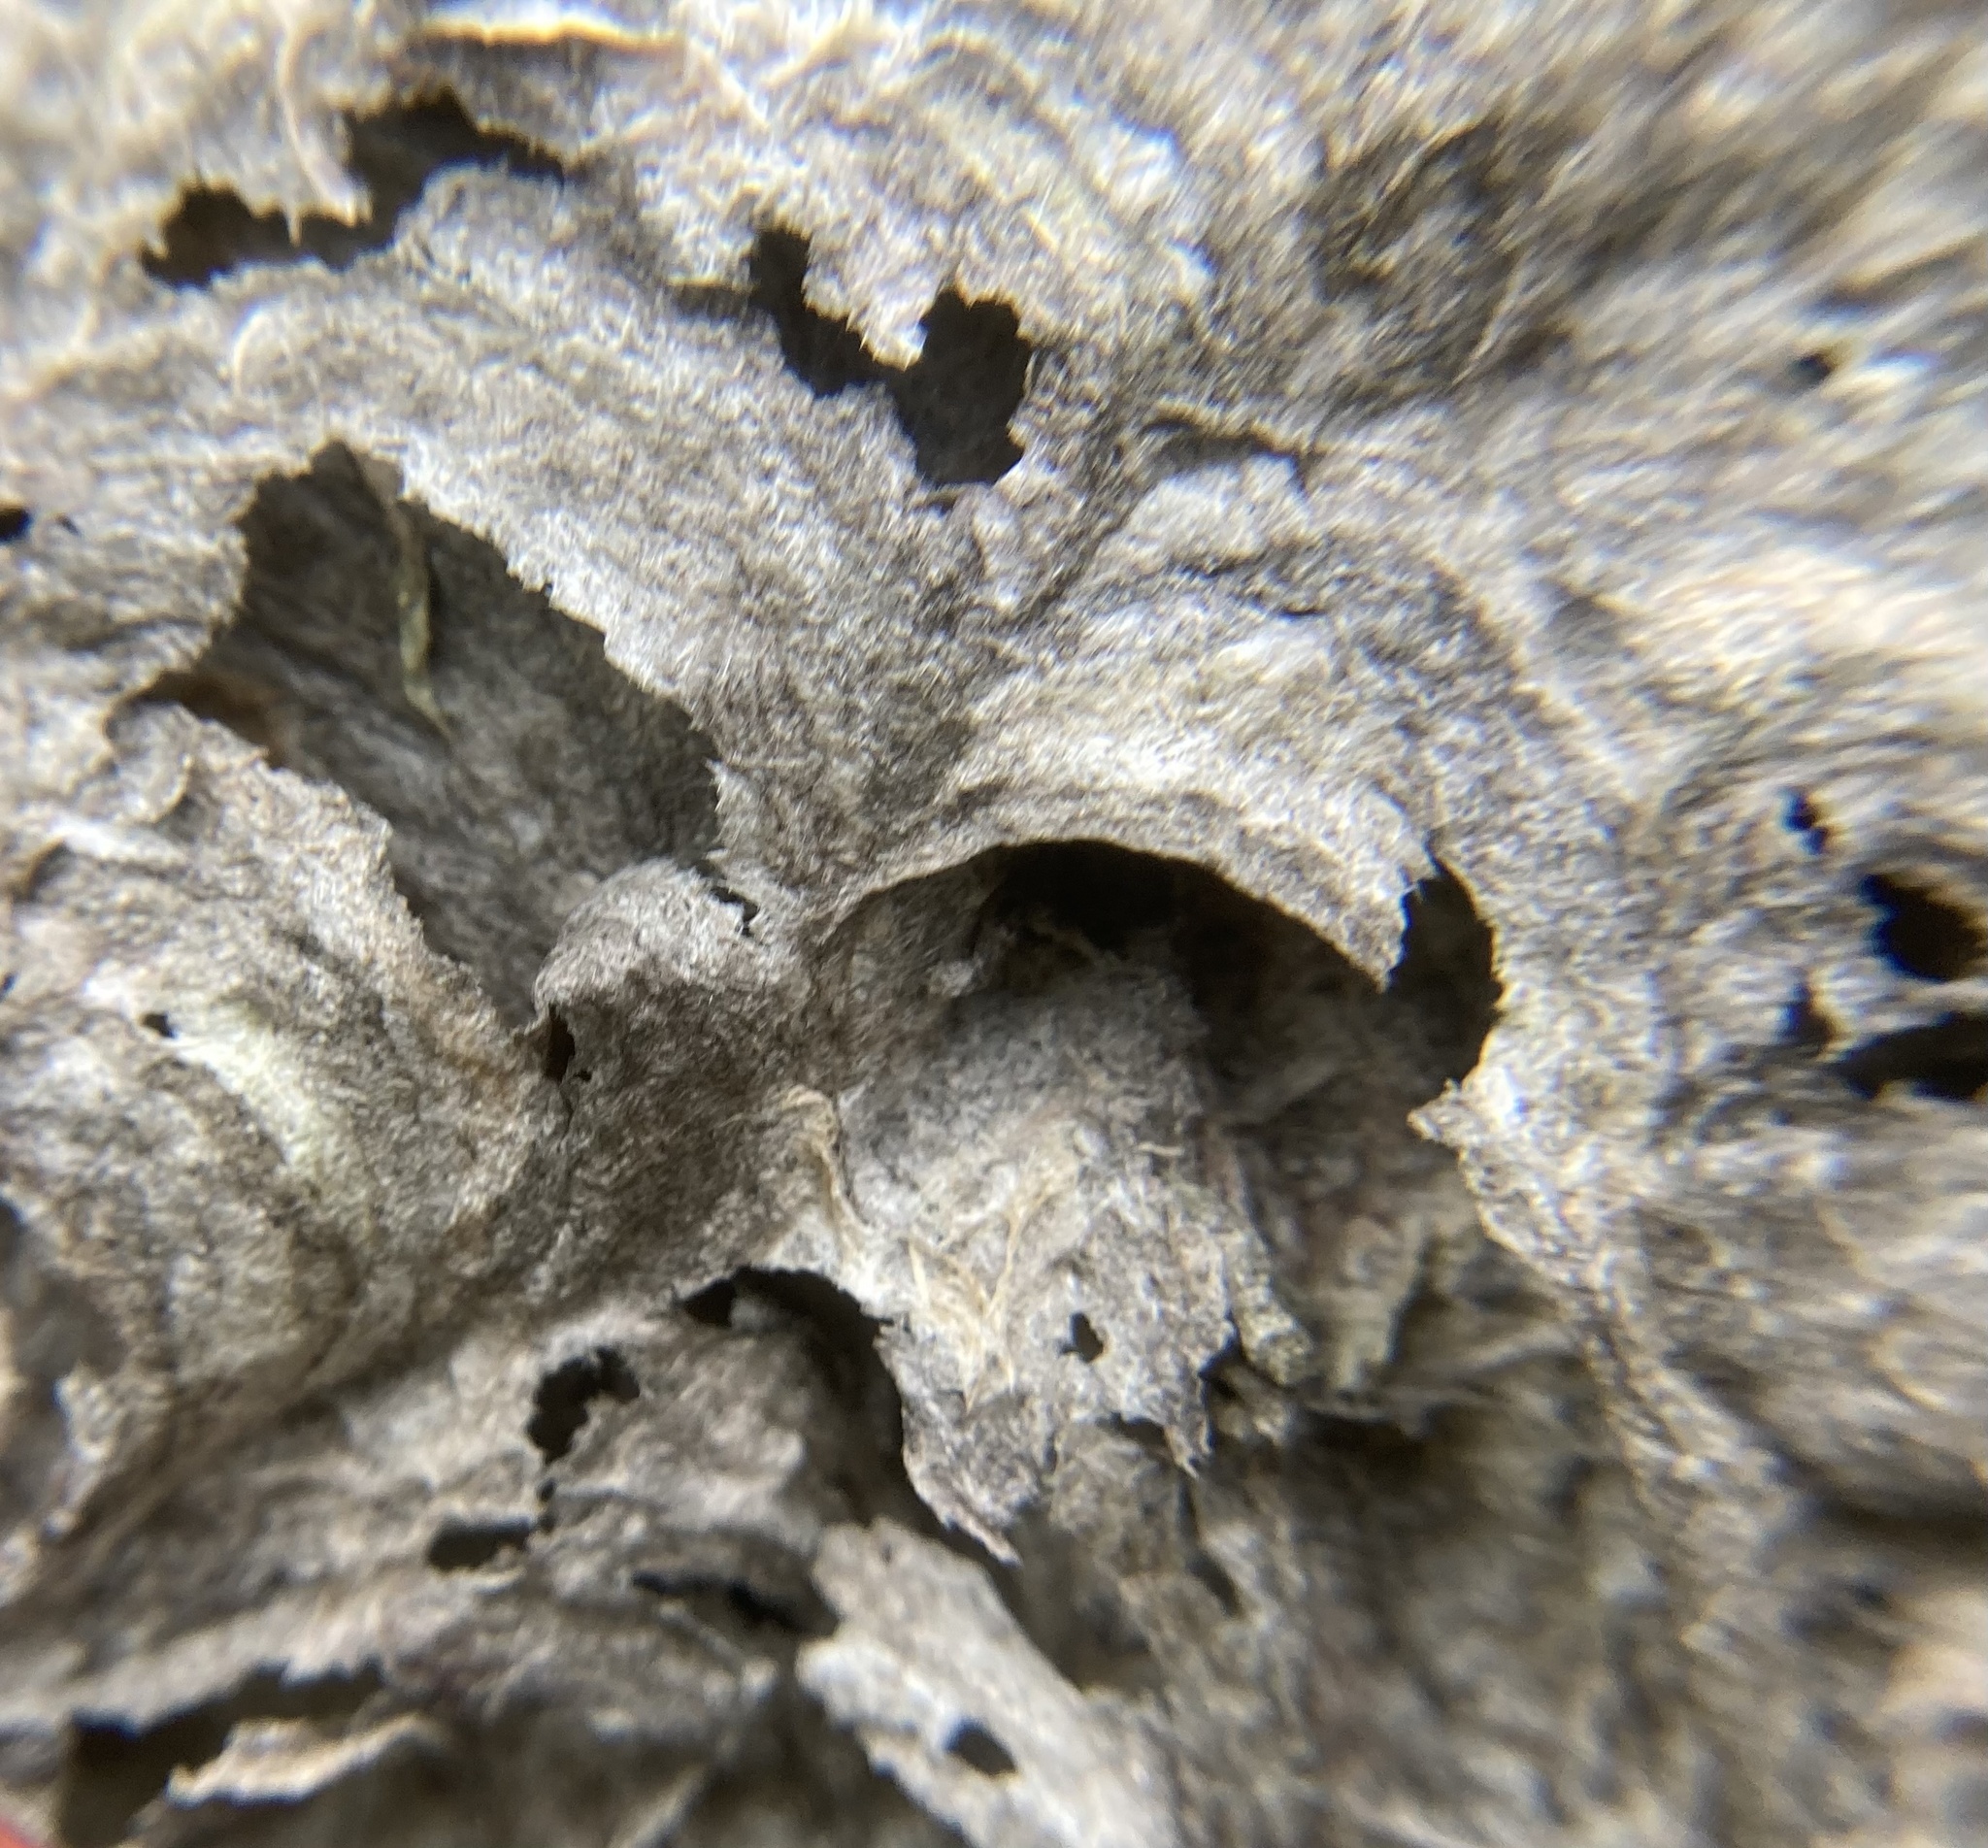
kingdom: Animalia
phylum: Arthropoda
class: Insecta
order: Hymenoptera
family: Vespidae
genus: Dolichovespula
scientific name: Dolichovespula maculata
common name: Bald-faced hornet
